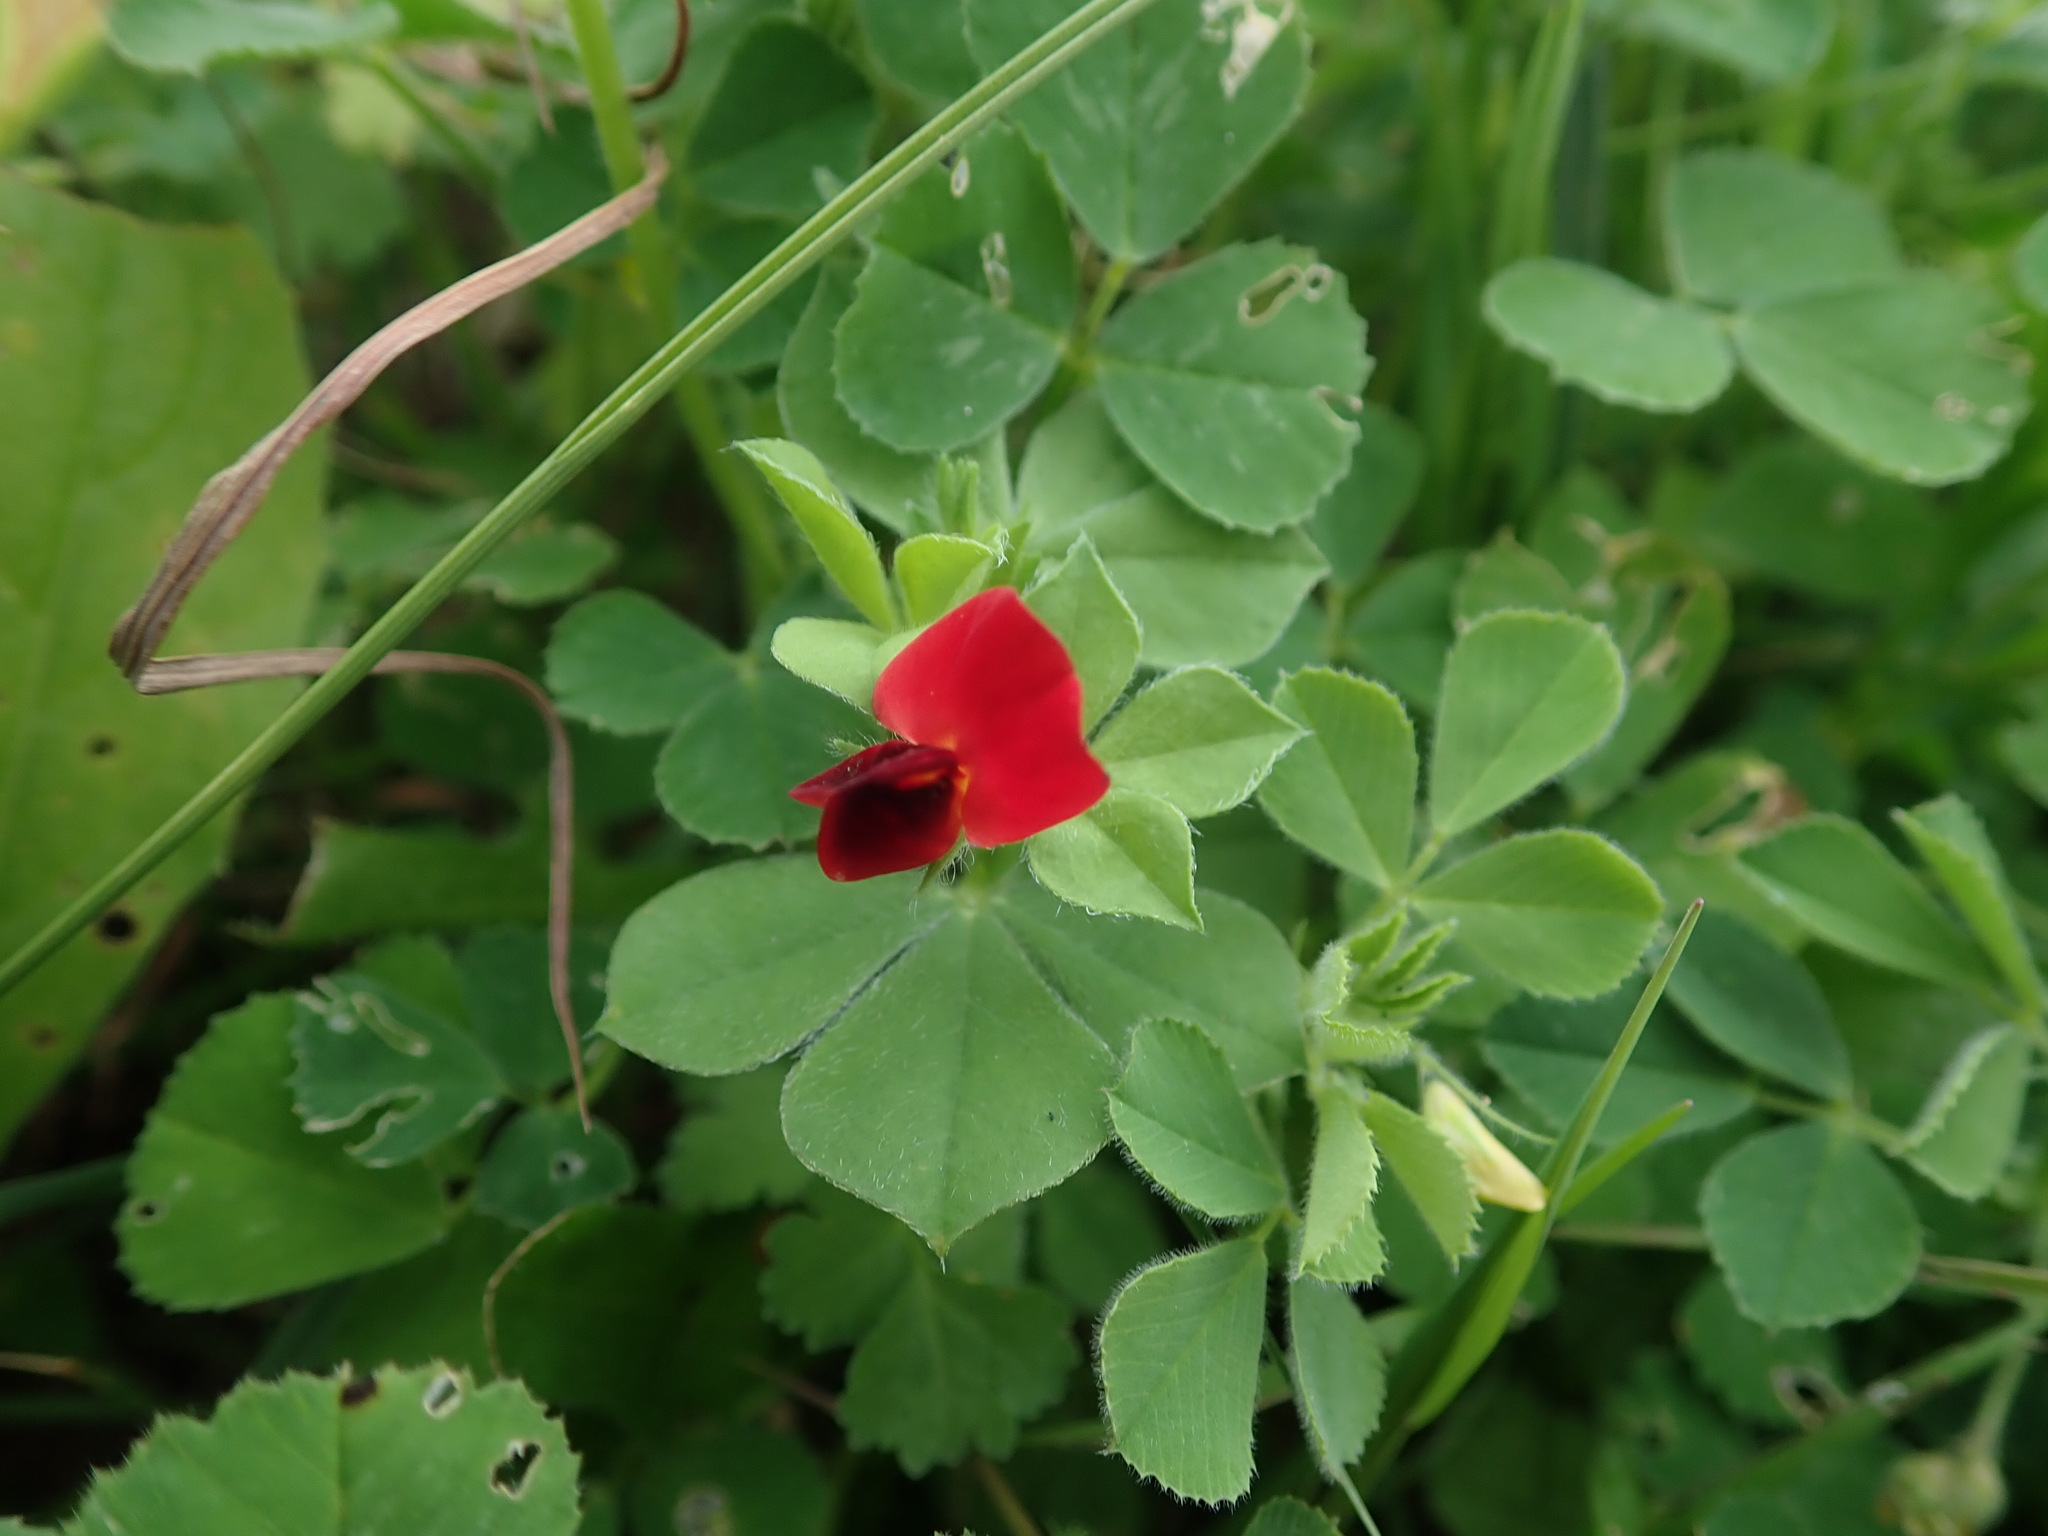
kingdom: Plantae
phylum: Tracheophyta
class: Magnoliopsida
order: Fabales
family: Fabaceae
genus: Lotus
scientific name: Lotus tetragonolobus
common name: Asparagus-pea
